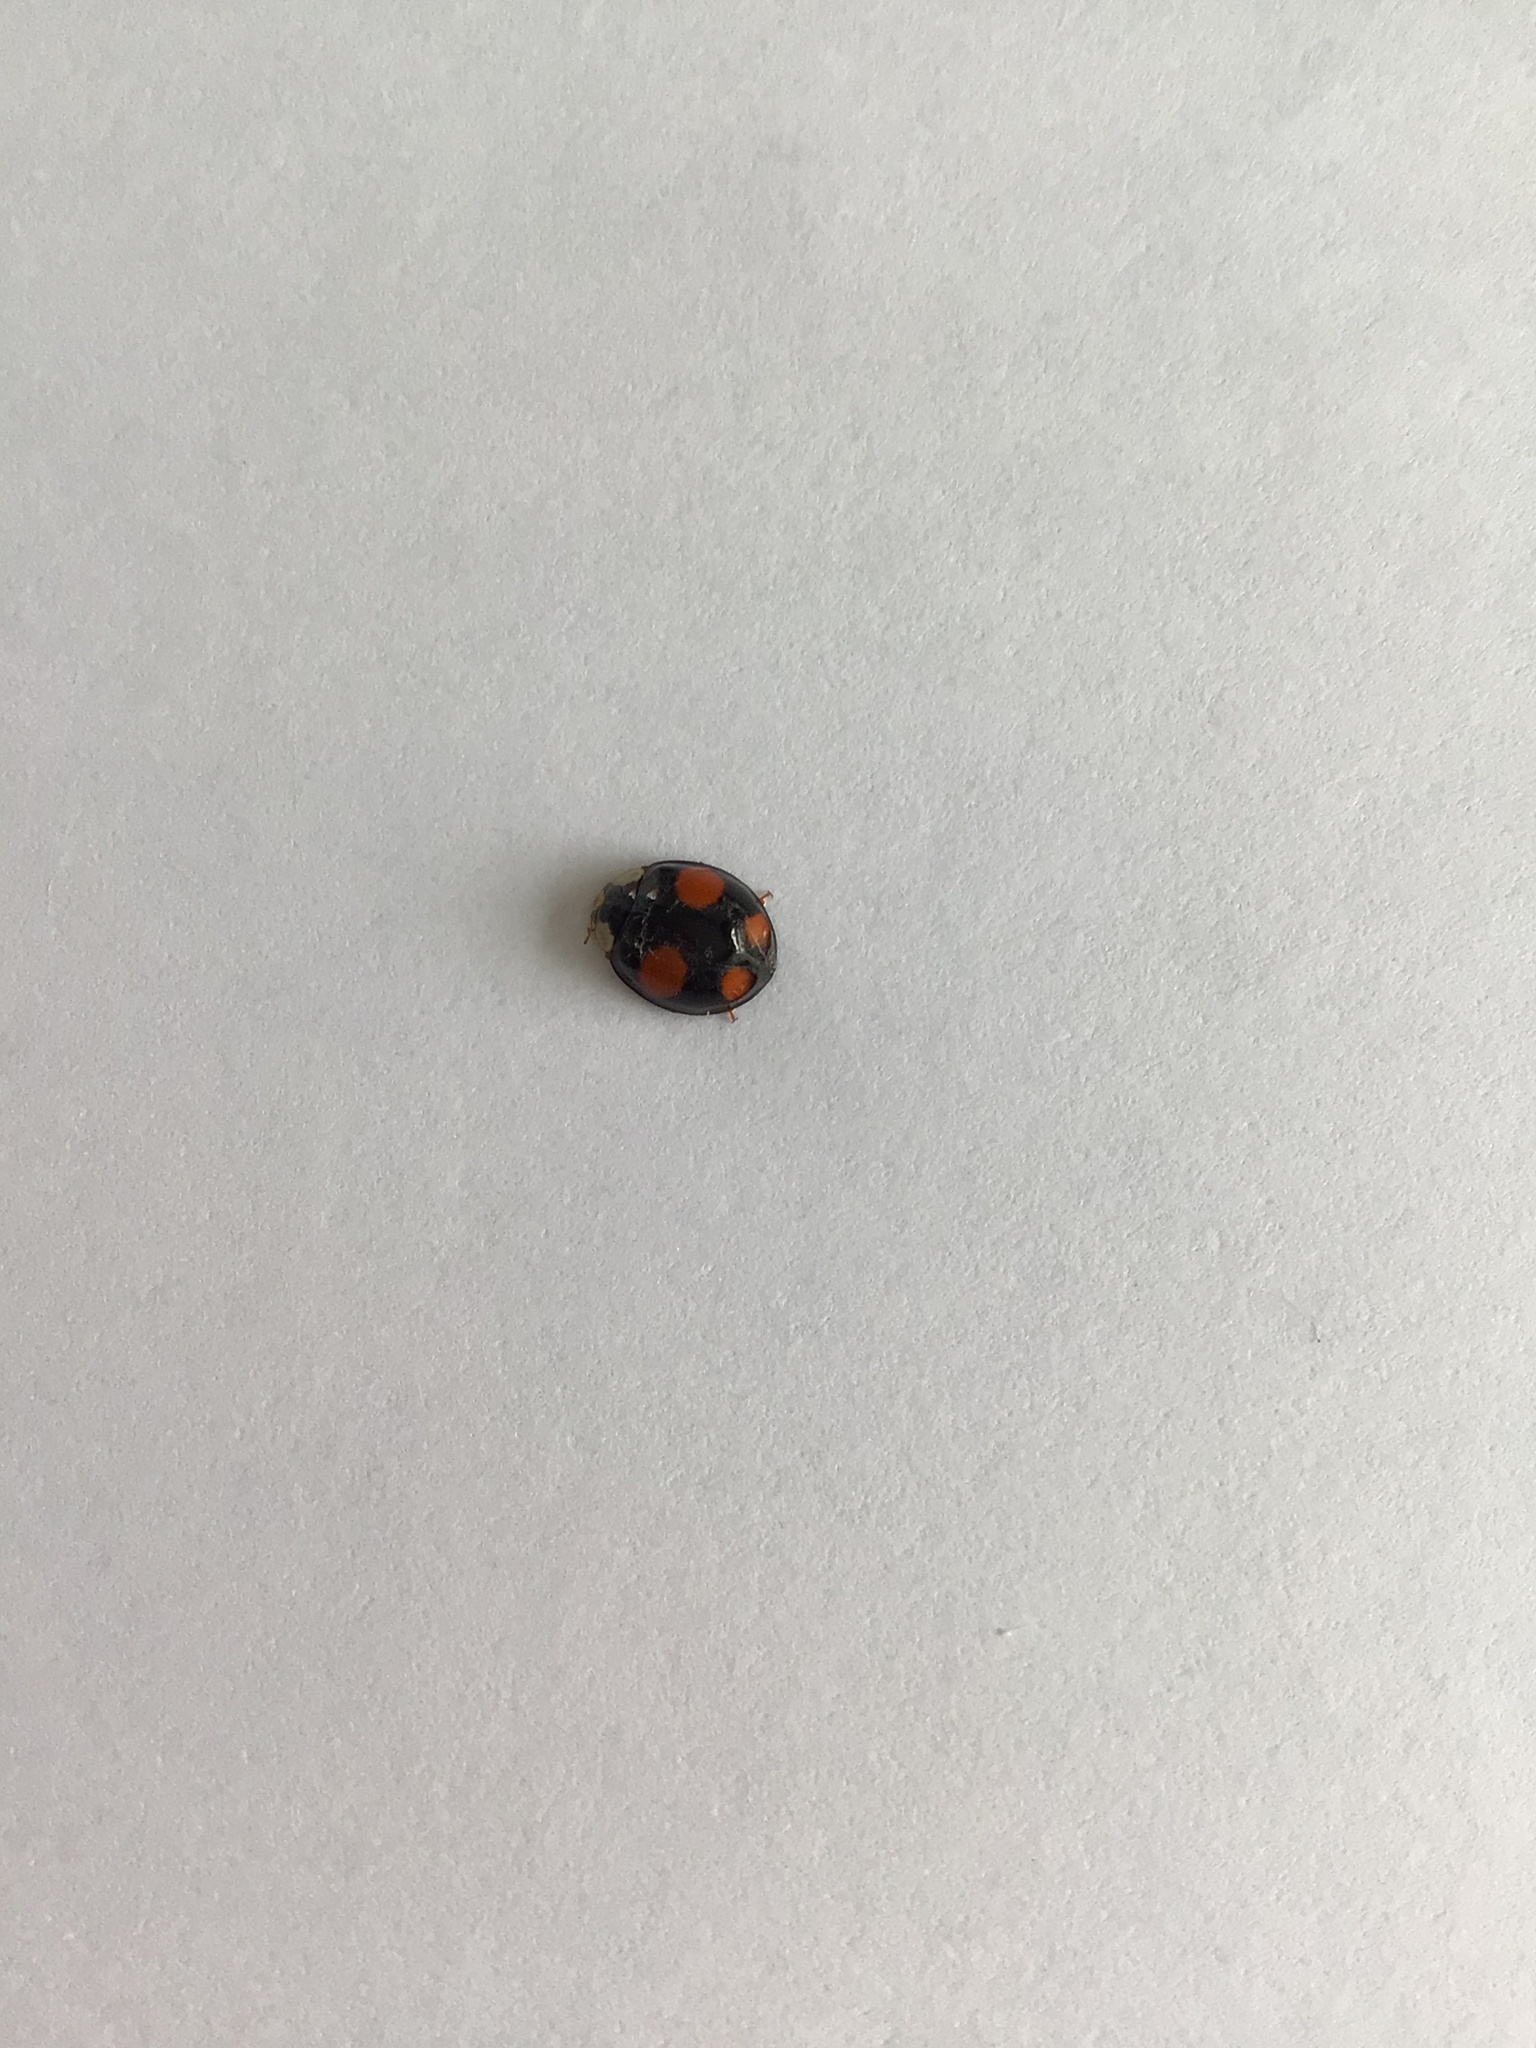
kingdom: Animalia
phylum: Arthropoda
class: Insecta
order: Coleoptera
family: Coccinellidae
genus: Harmonia
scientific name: Harmonia axyridis
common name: Harlequin ladybird
